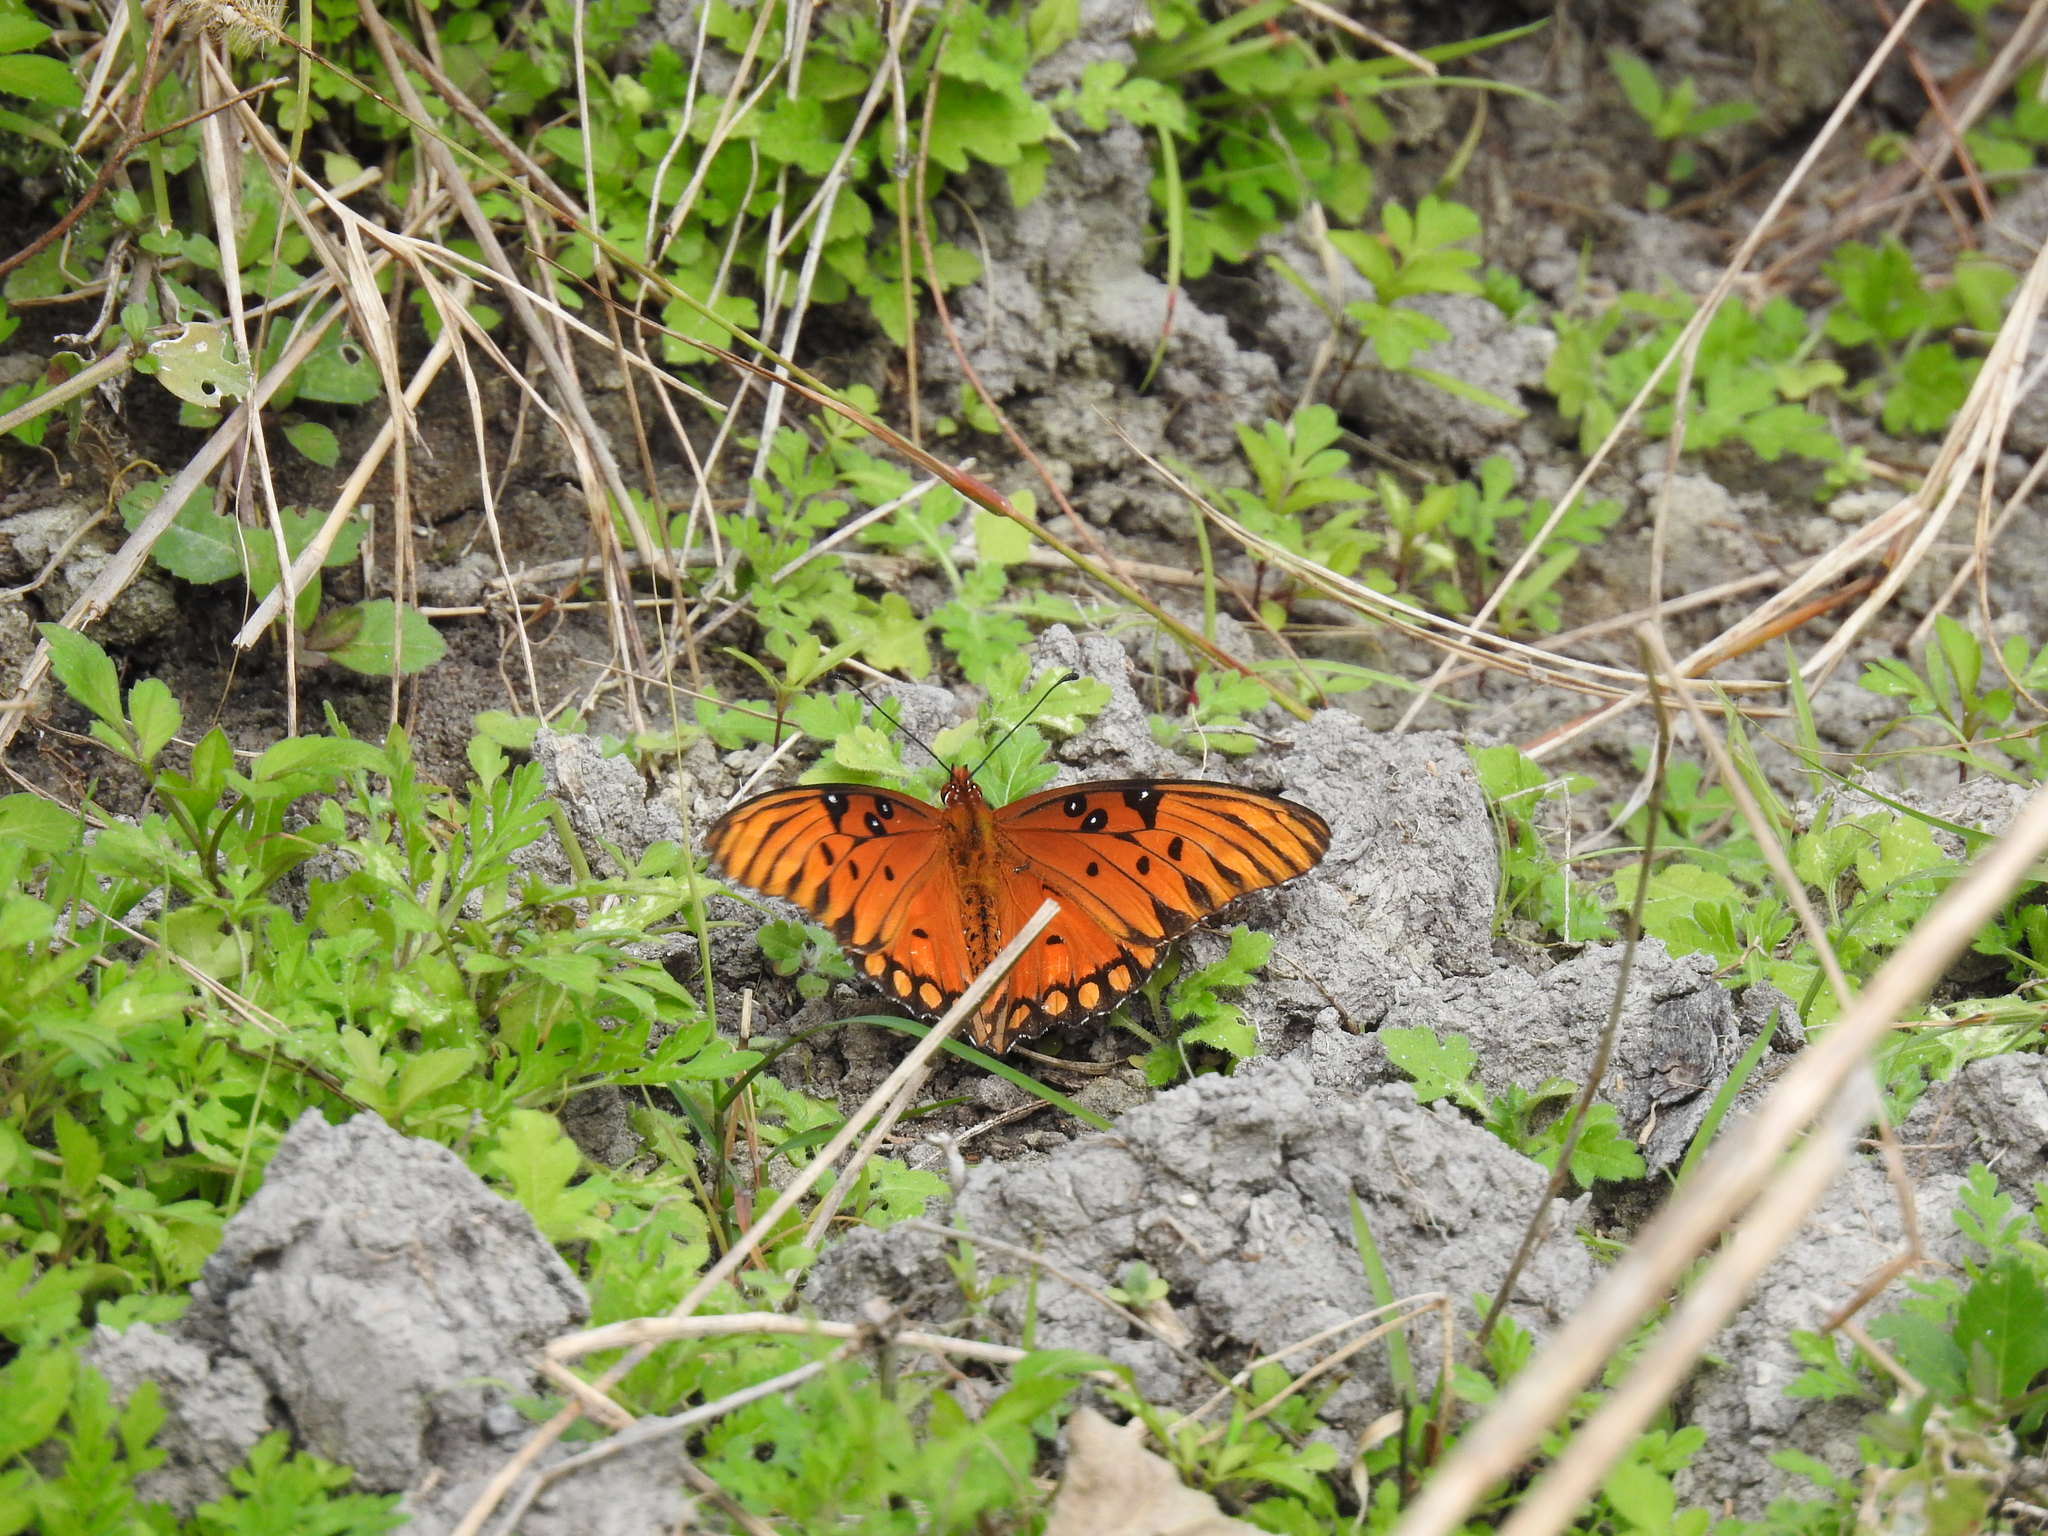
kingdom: Animalia
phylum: Arthropoda
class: Insecta
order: Lepidoptera
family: Nymphalidae
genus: Dione
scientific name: Dione vanillae
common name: Gulf fritillary
